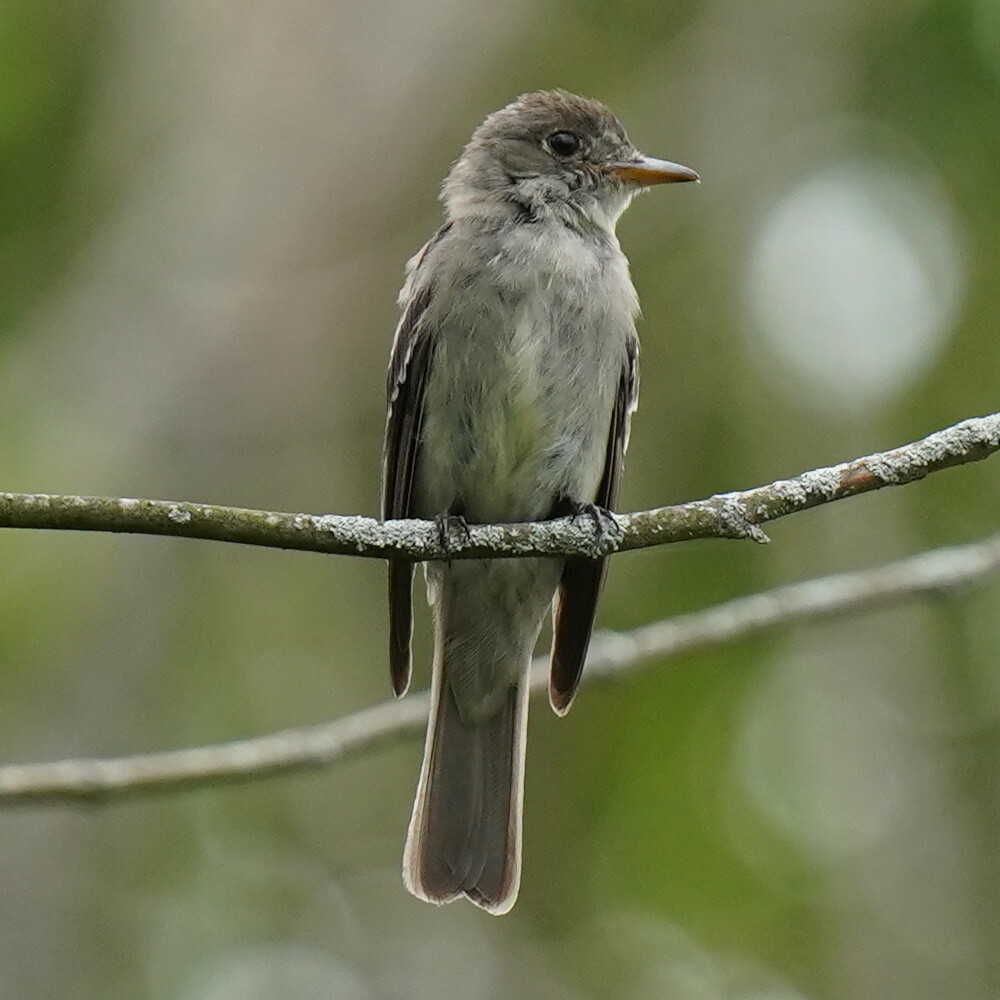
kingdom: Animalia
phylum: Chordata
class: Aves
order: Passeriformes
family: Tyrannidae
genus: Contopus
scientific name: Contopus virens
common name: Eastern wood-pewee
